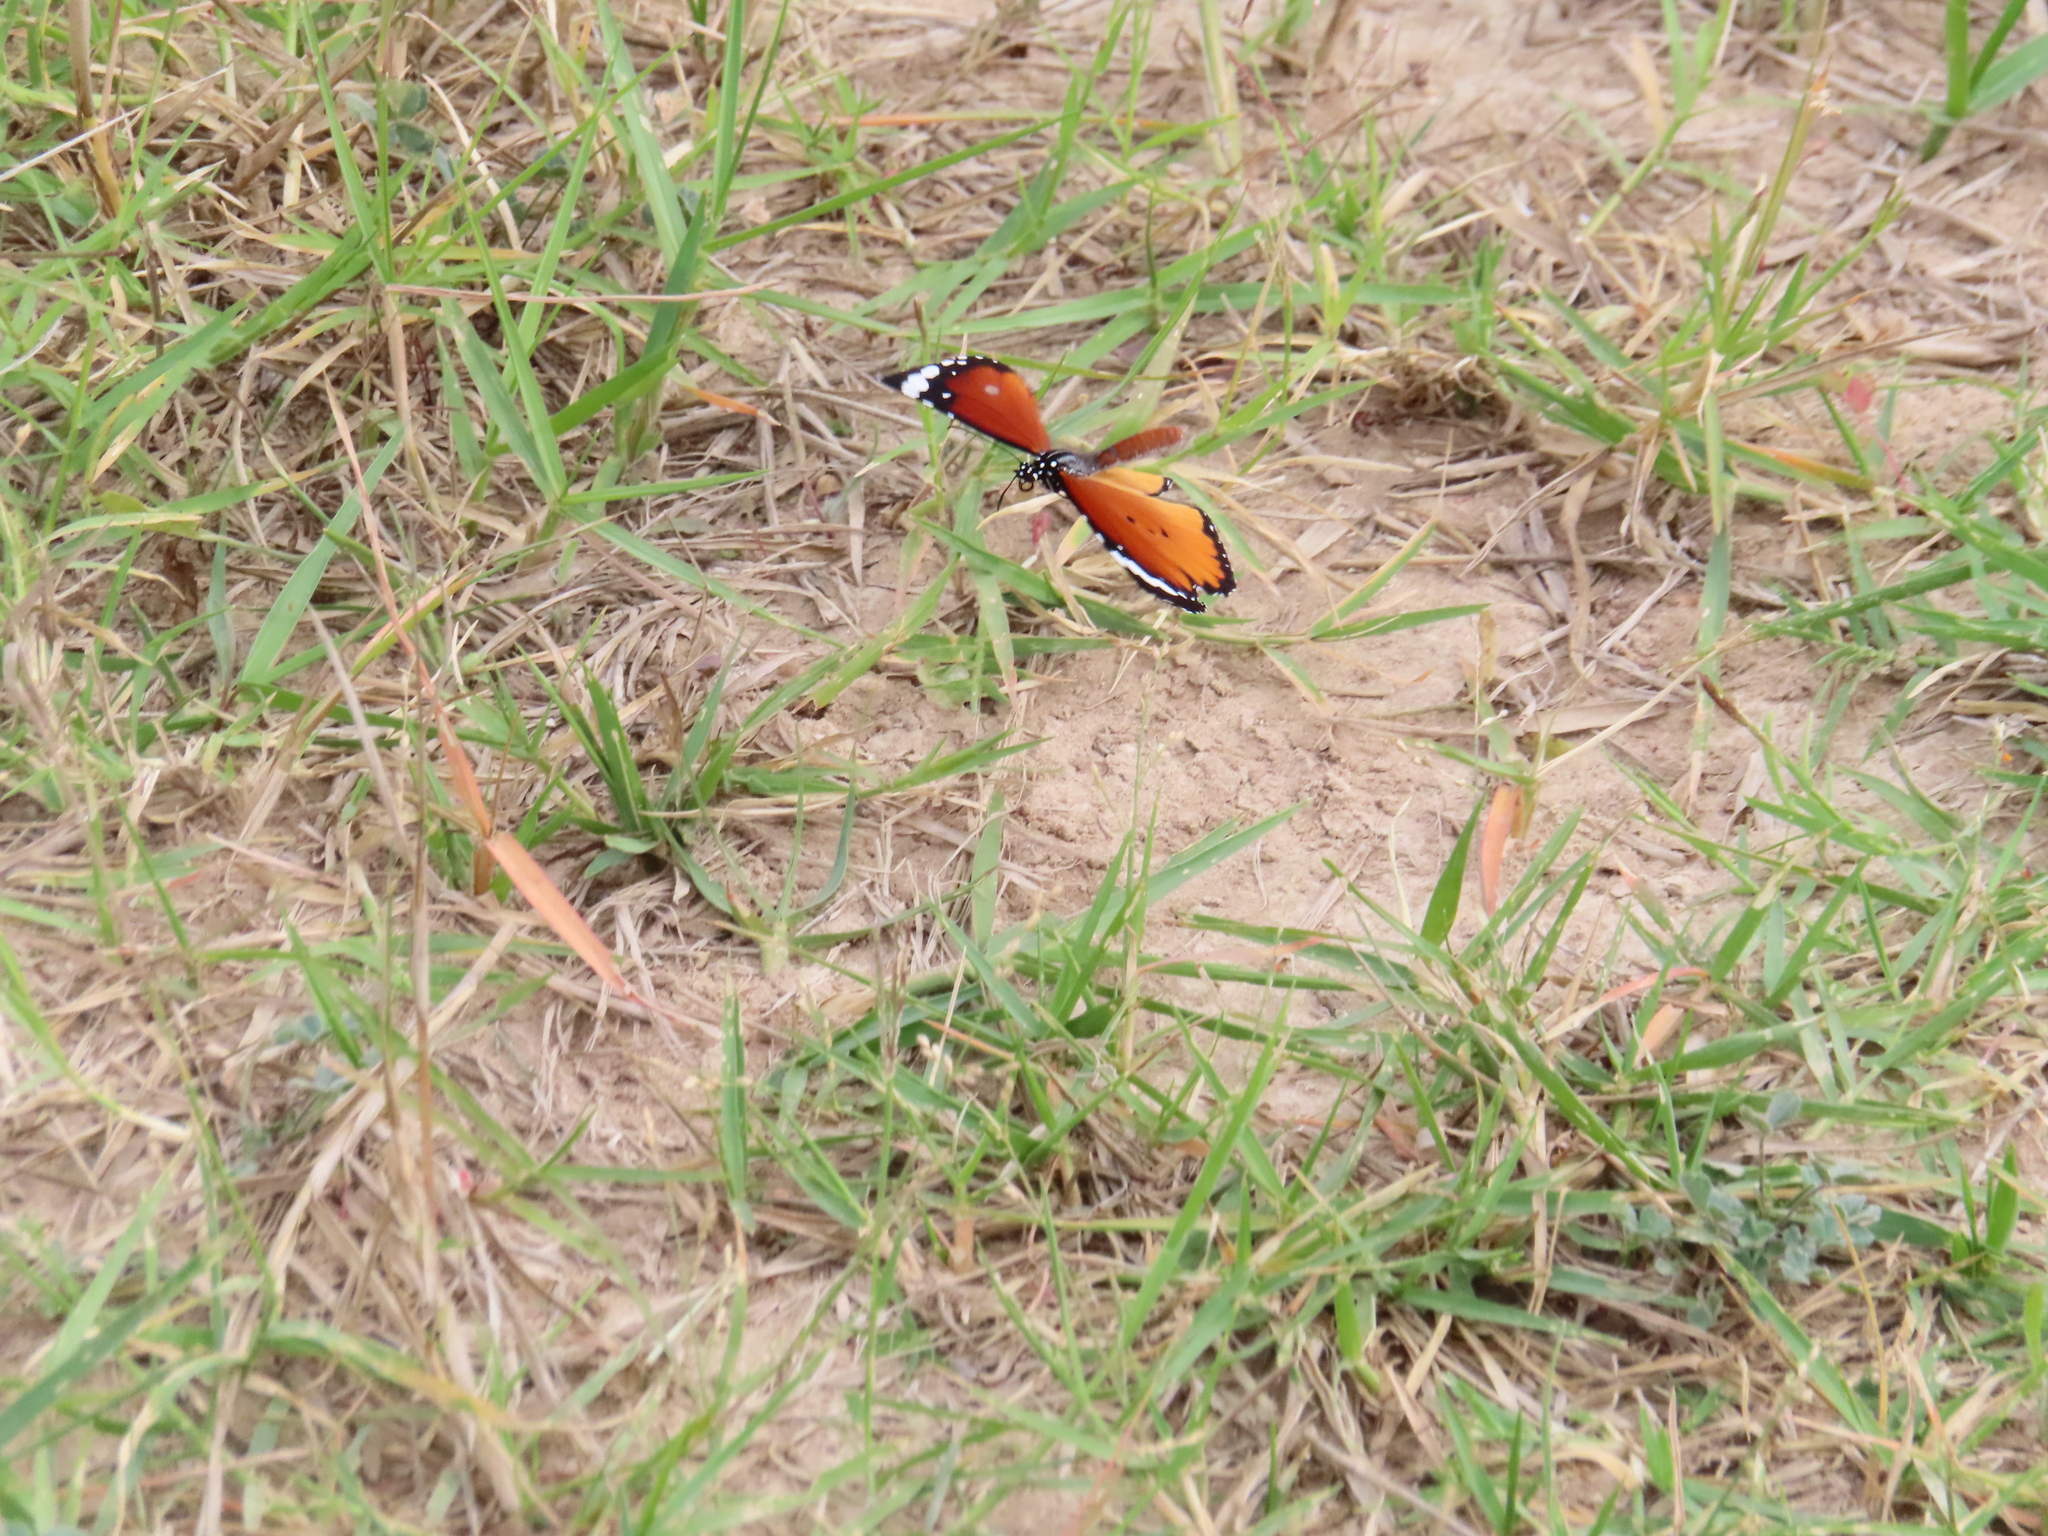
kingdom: Animalia
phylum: Arthropoda
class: Insecta
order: Lepidoptera
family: Nymphalidae
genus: Danaus
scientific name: Danaus chrysippus
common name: Plain tiger
